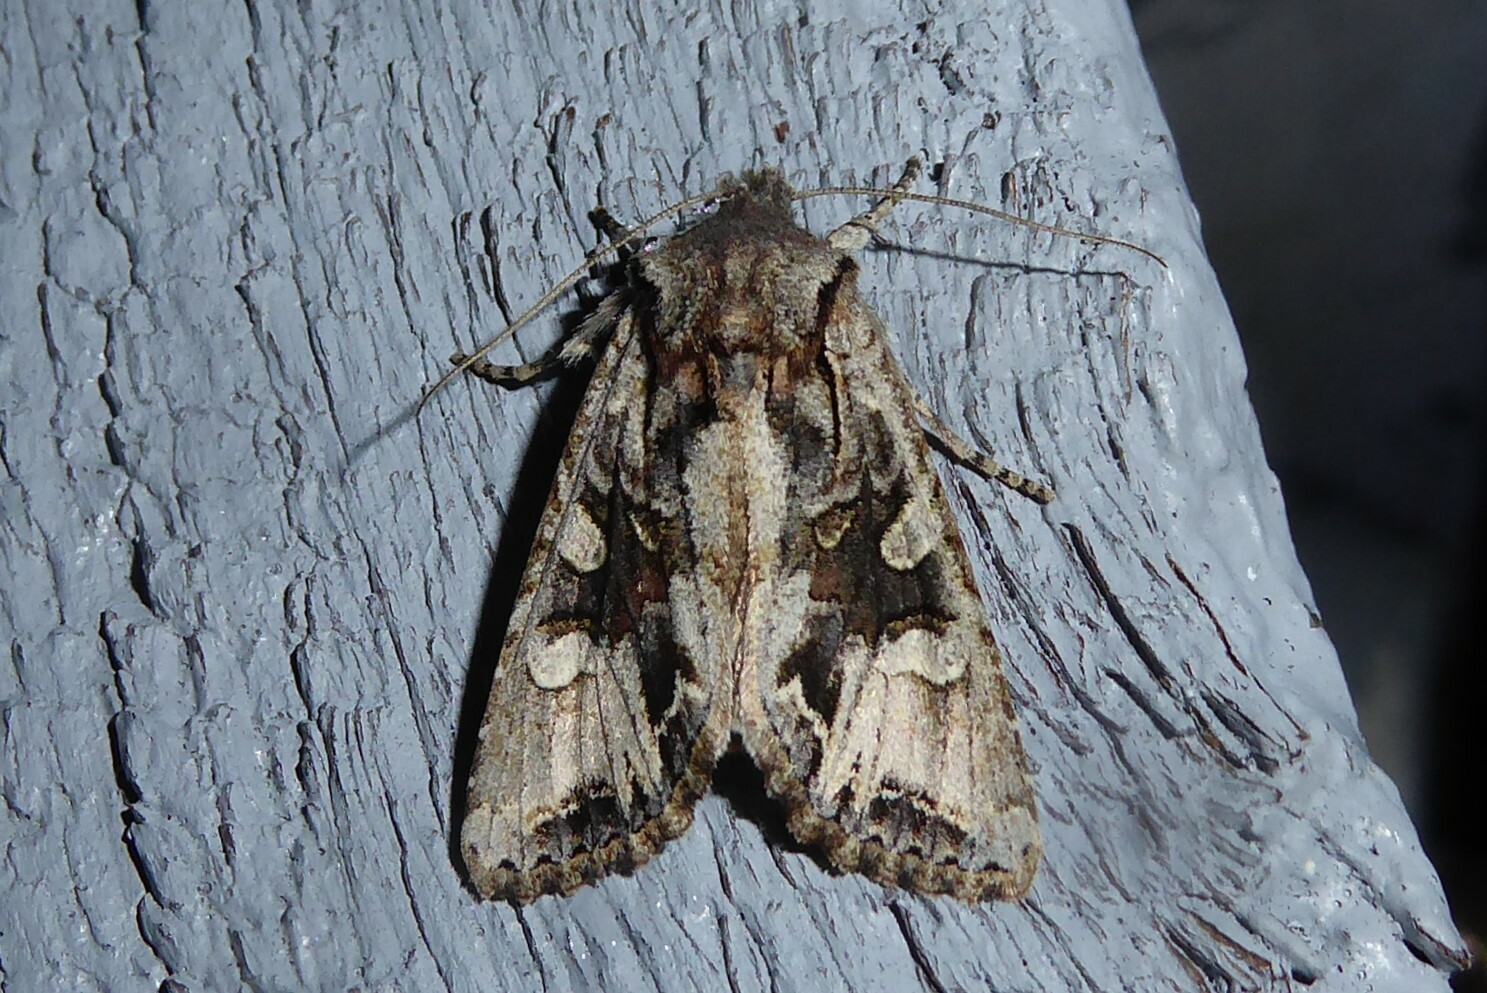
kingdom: Animalia
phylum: Arthropoda
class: Insecta
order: Lepidoptera
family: Noctuidae
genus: Ichneutica
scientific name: Ichneutica
